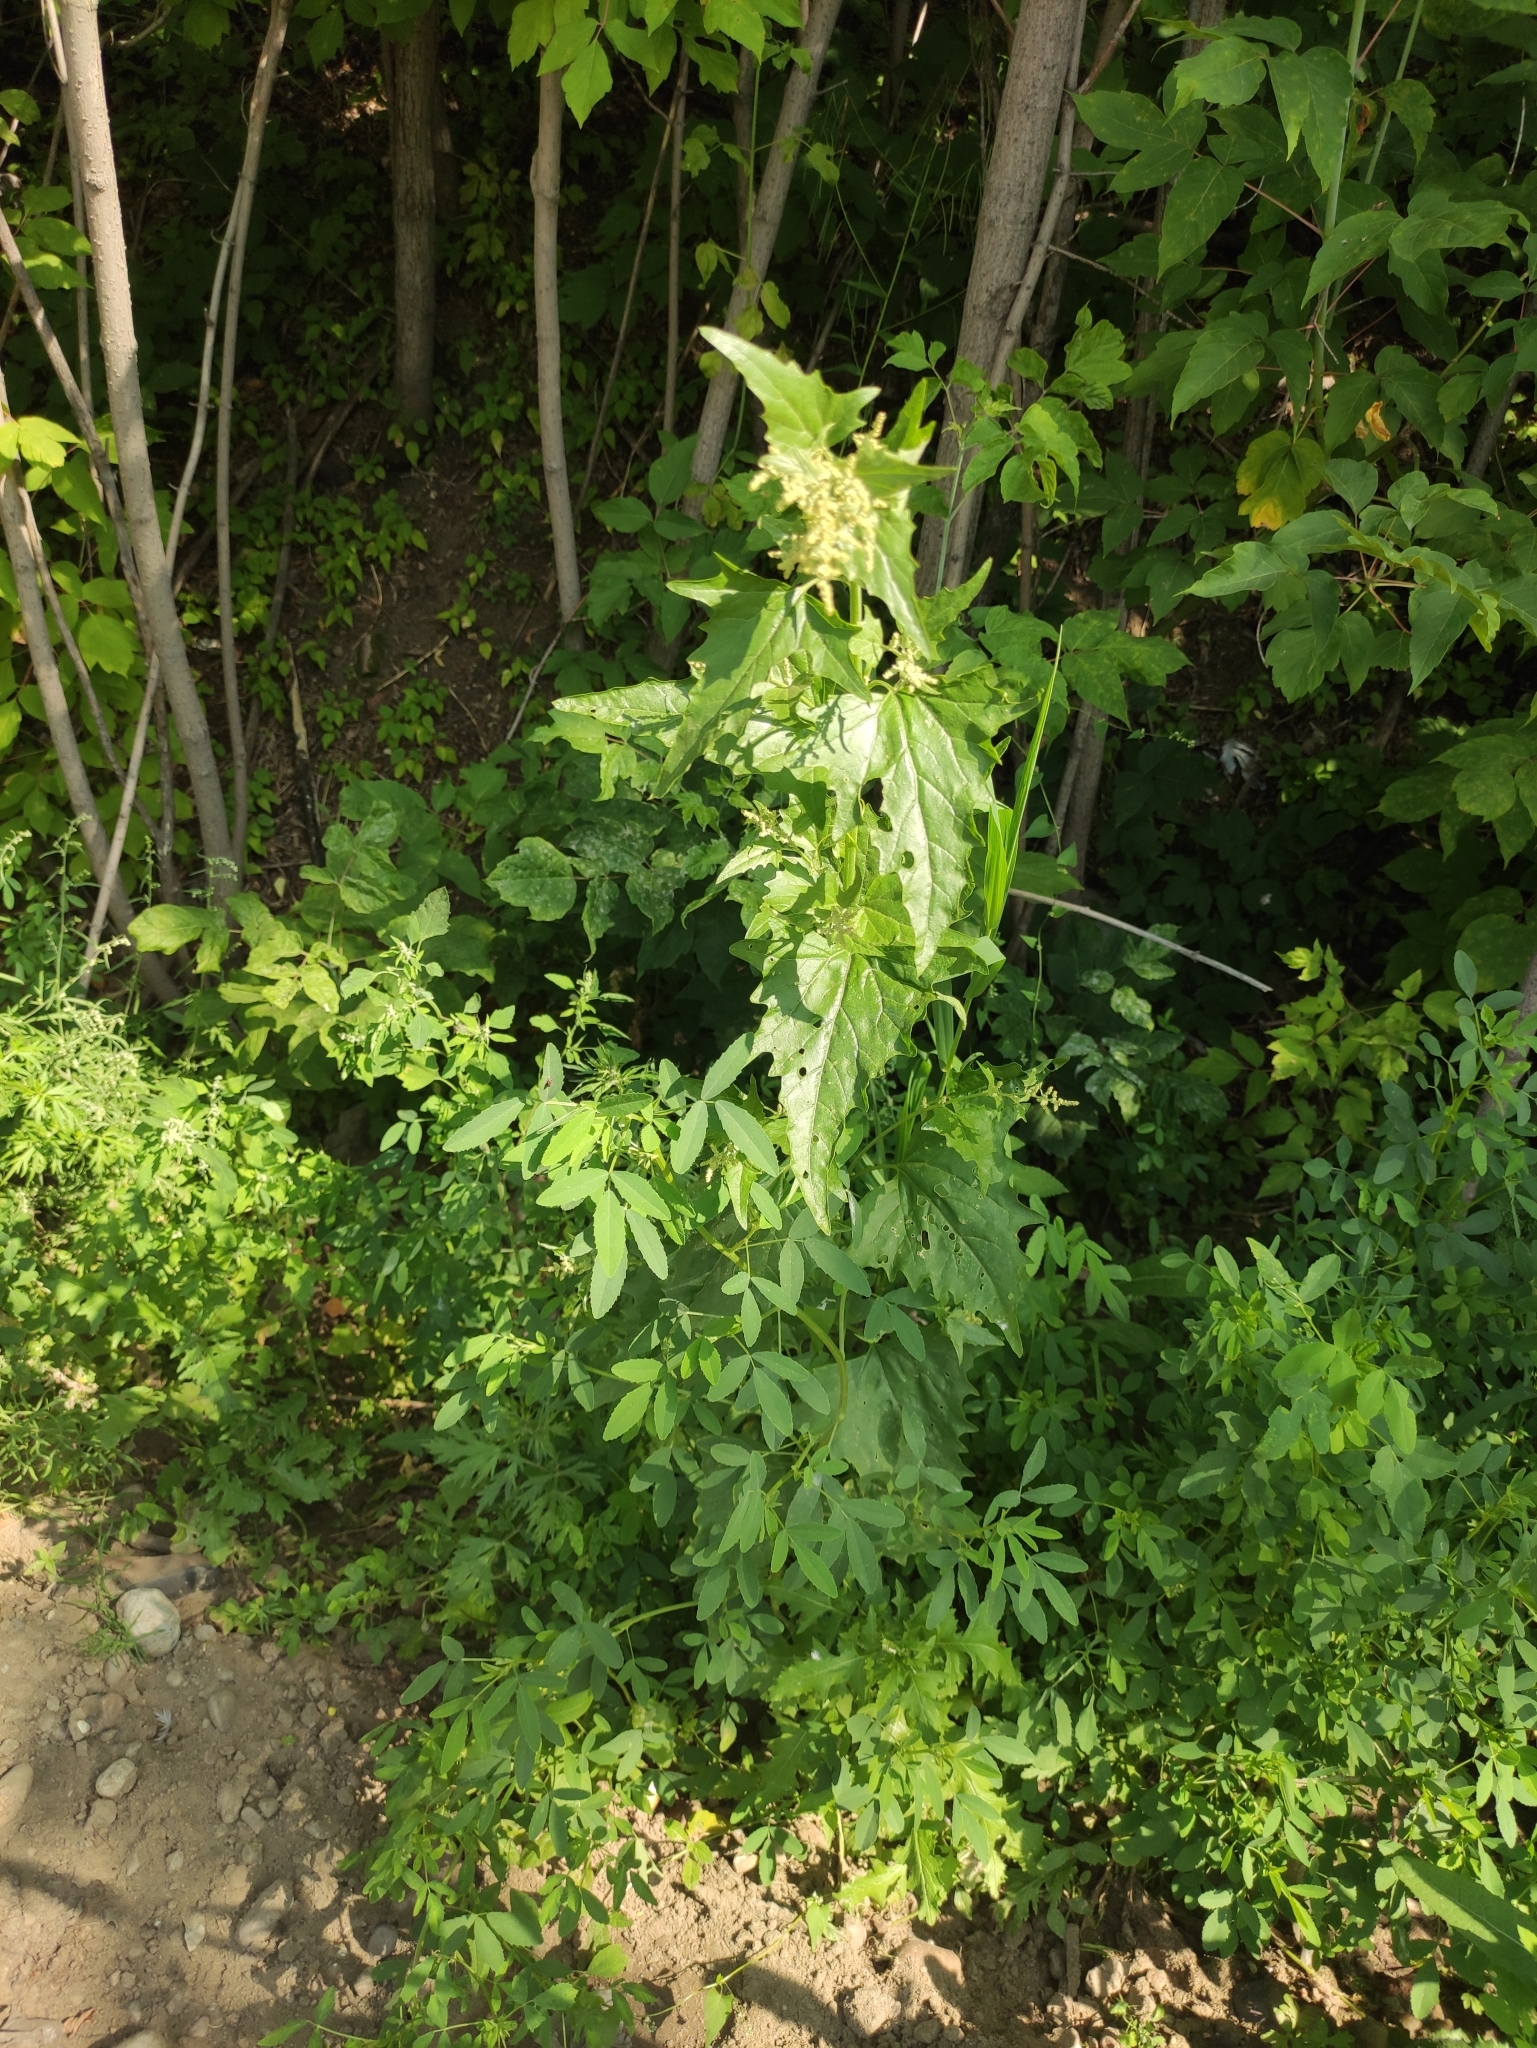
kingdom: Plantae
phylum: Tracheophyta
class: Magnoliopsida
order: Caryophyllales
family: Amaranthaceae
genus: Atriplex
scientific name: Atriplex sagittata
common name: Purple orache
